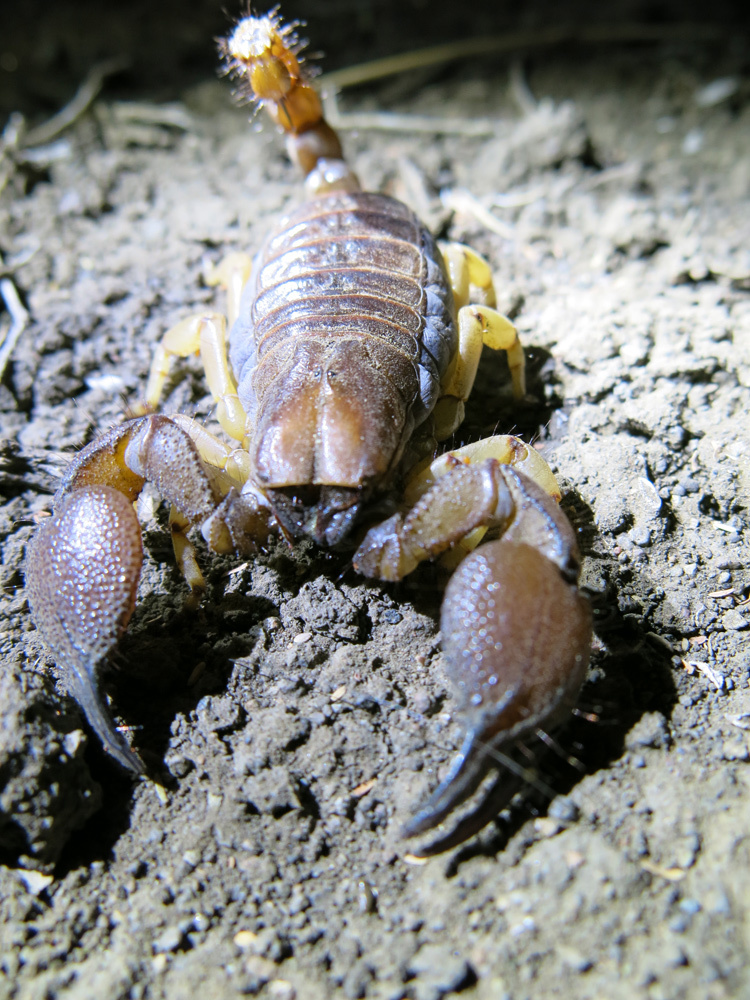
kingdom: Animalia
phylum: Arthropoda
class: Arachnida
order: Scorpiones
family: Scorpionidae
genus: Opistophthalmus
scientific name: Opistophthalmus glabrifrons
